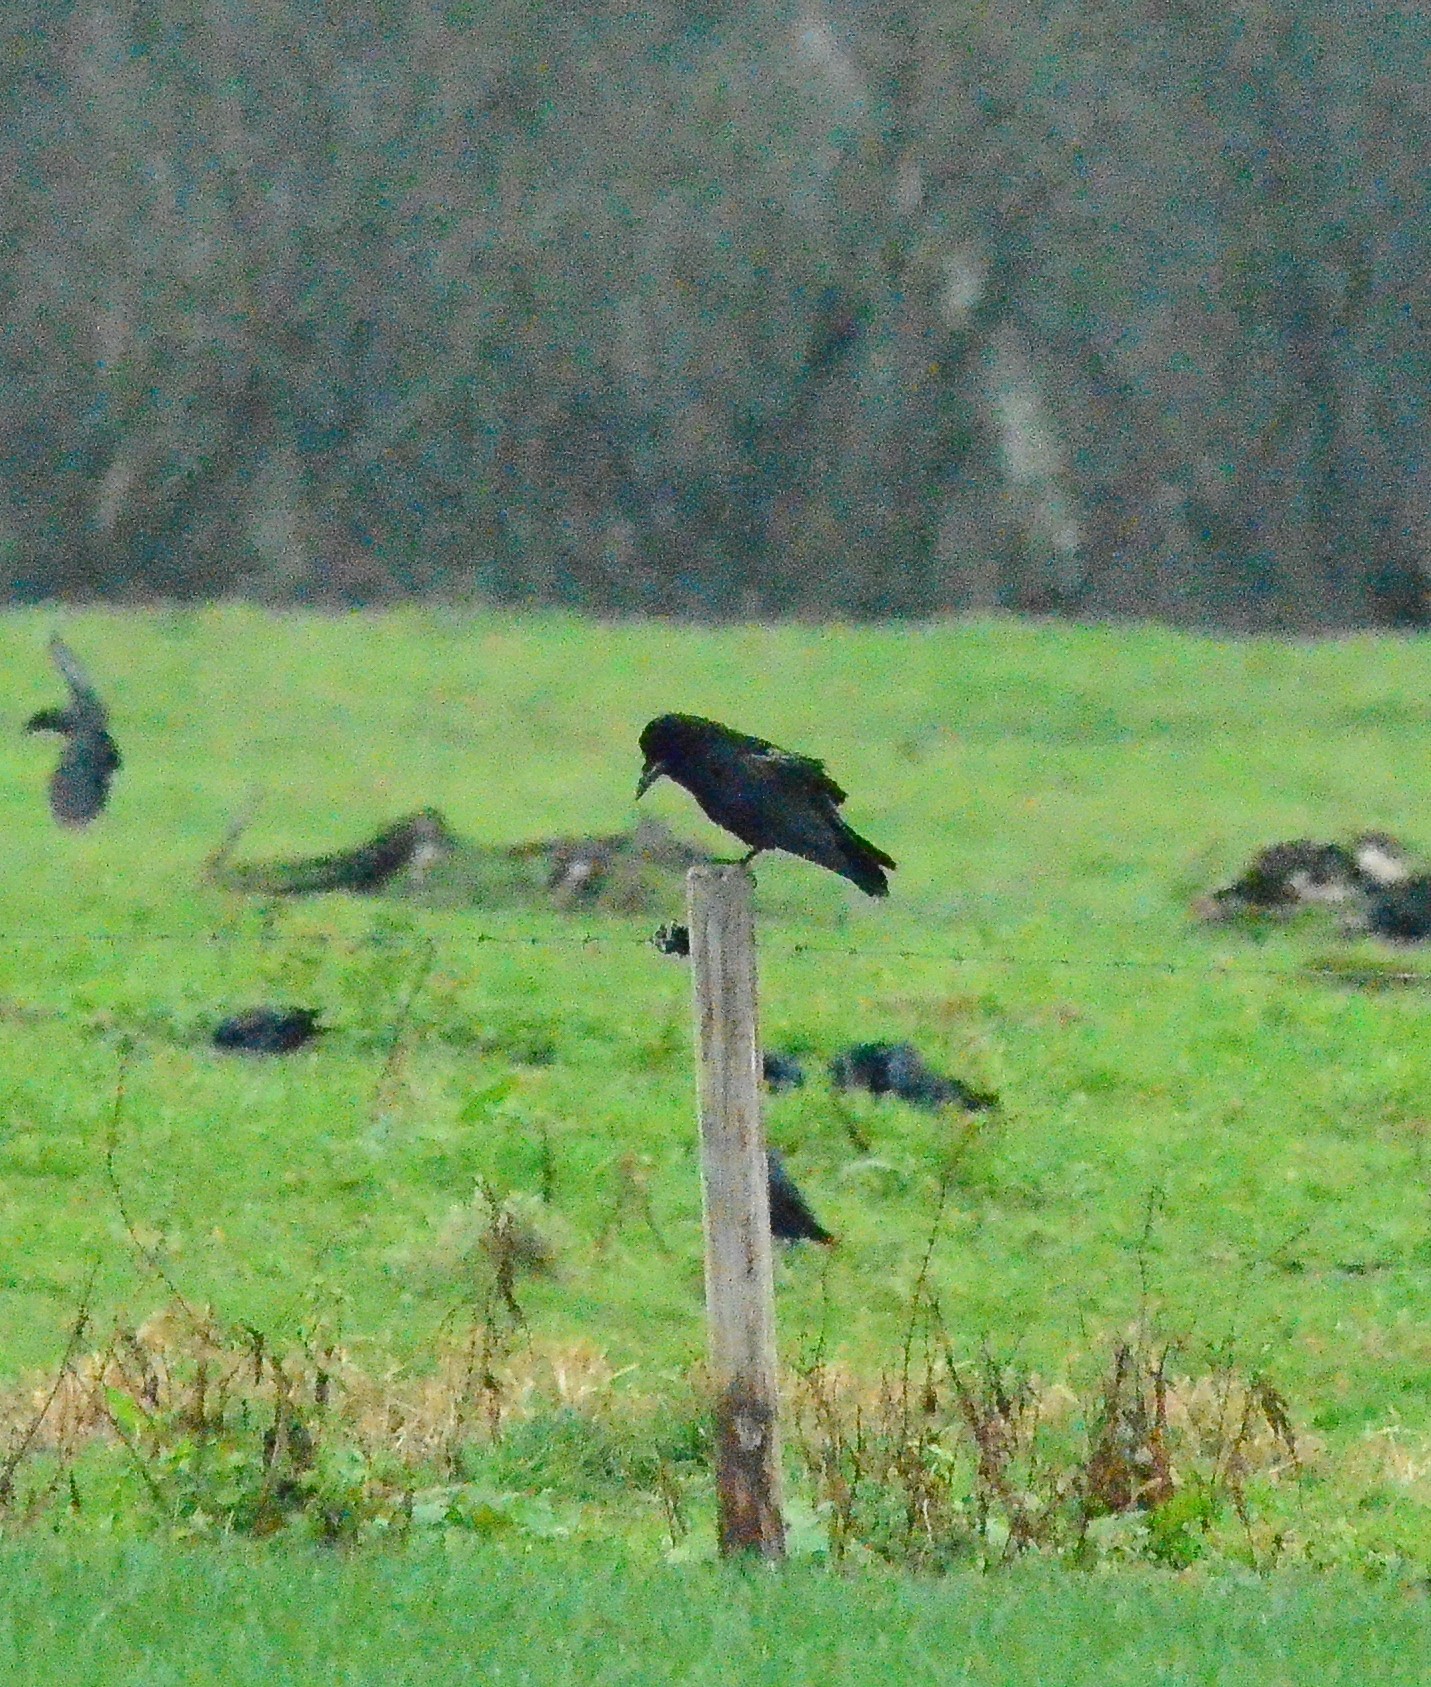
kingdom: Animalia
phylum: Chordata
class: Aves
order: Passeriformes
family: Corvidae
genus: Corvus
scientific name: Corvus corone
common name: Carrion crow
